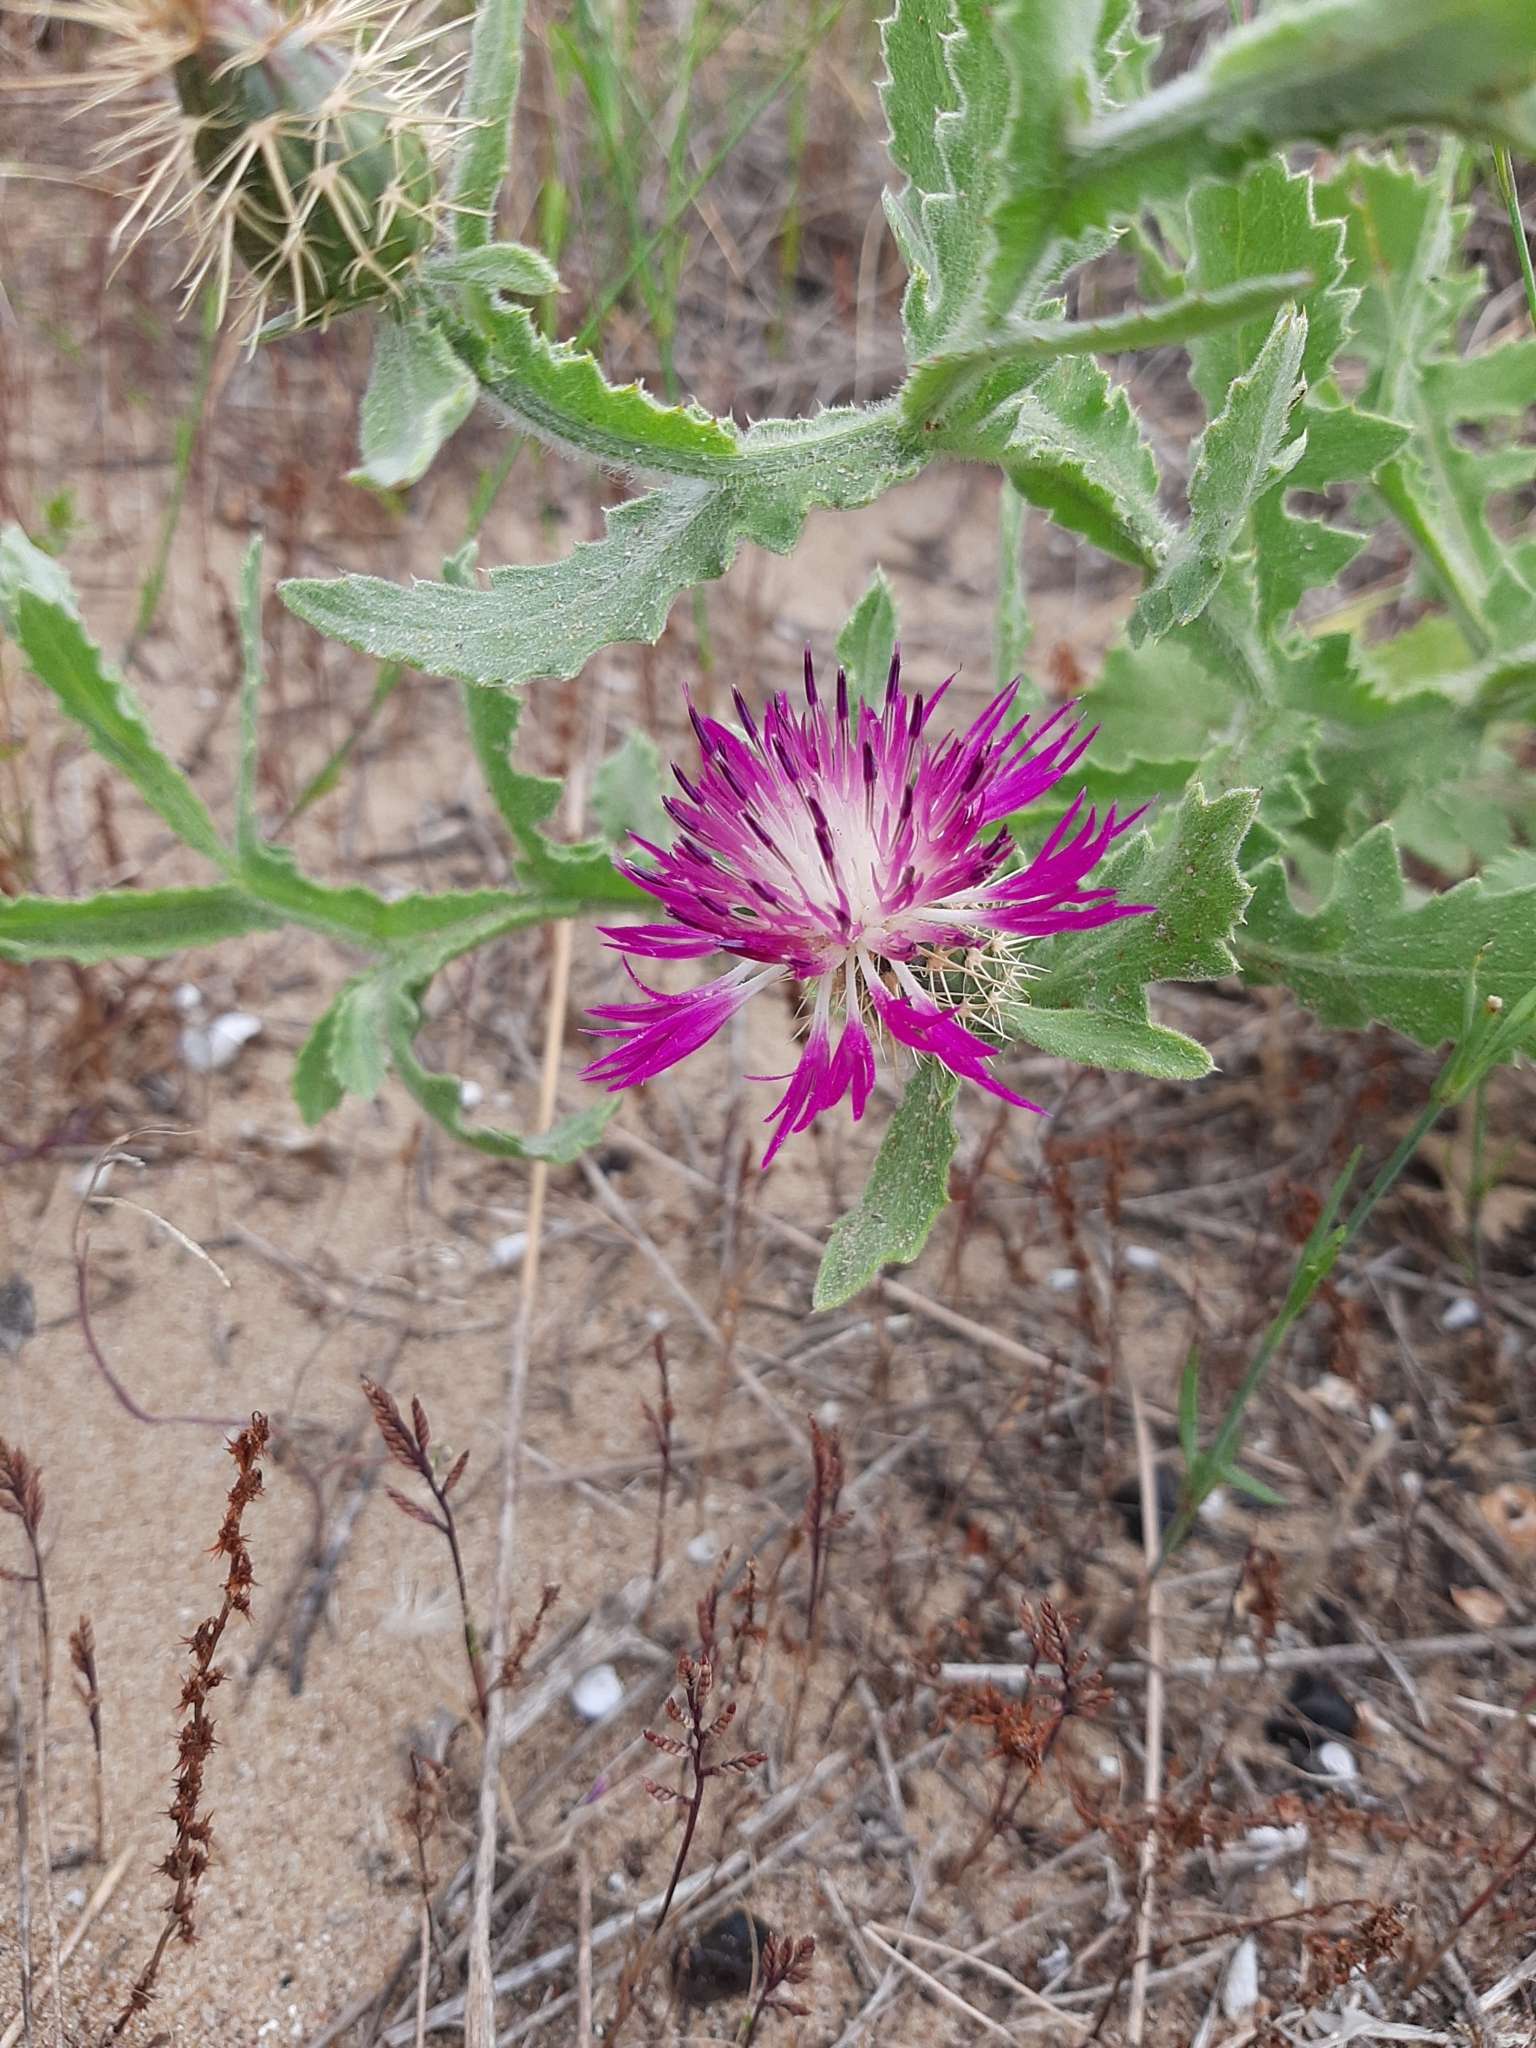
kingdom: Plantae
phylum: Tracheophyta
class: Magnoliopsida
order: Asterales
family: Asteraceae
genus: Centaurea
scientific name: Centaurea seridis
